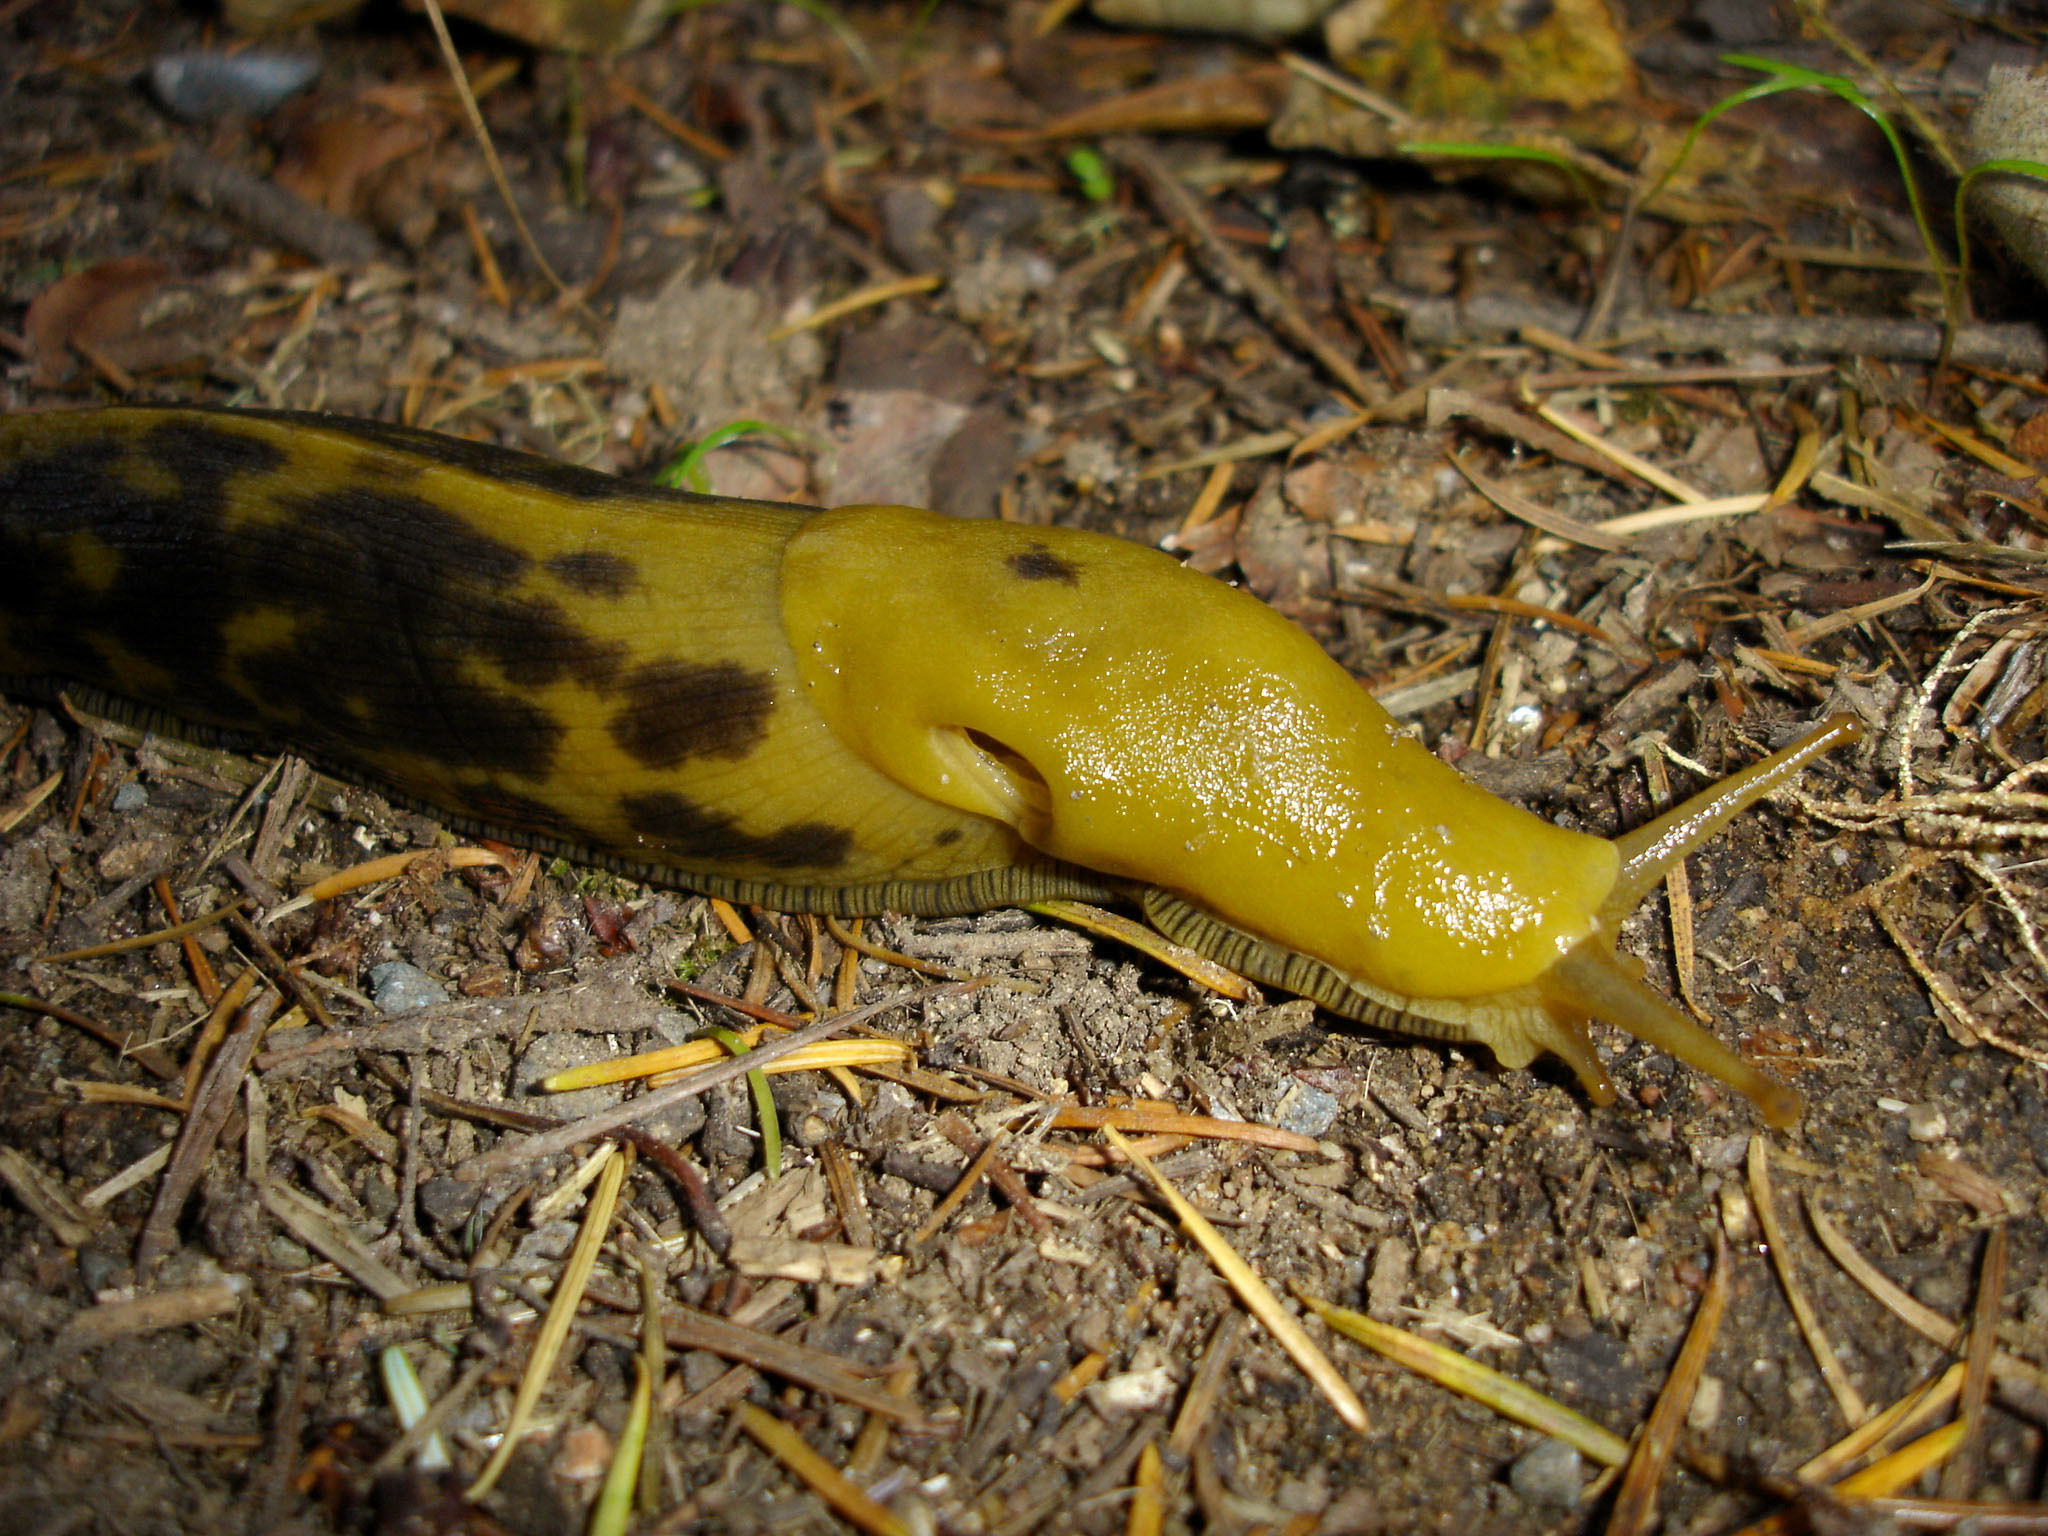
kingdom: Animalia
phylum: Mollusca
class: Gastropoda
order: Stylommatophora
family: Ariolimacidae
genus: Ariolimax
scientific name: Ariolimax buttoni
